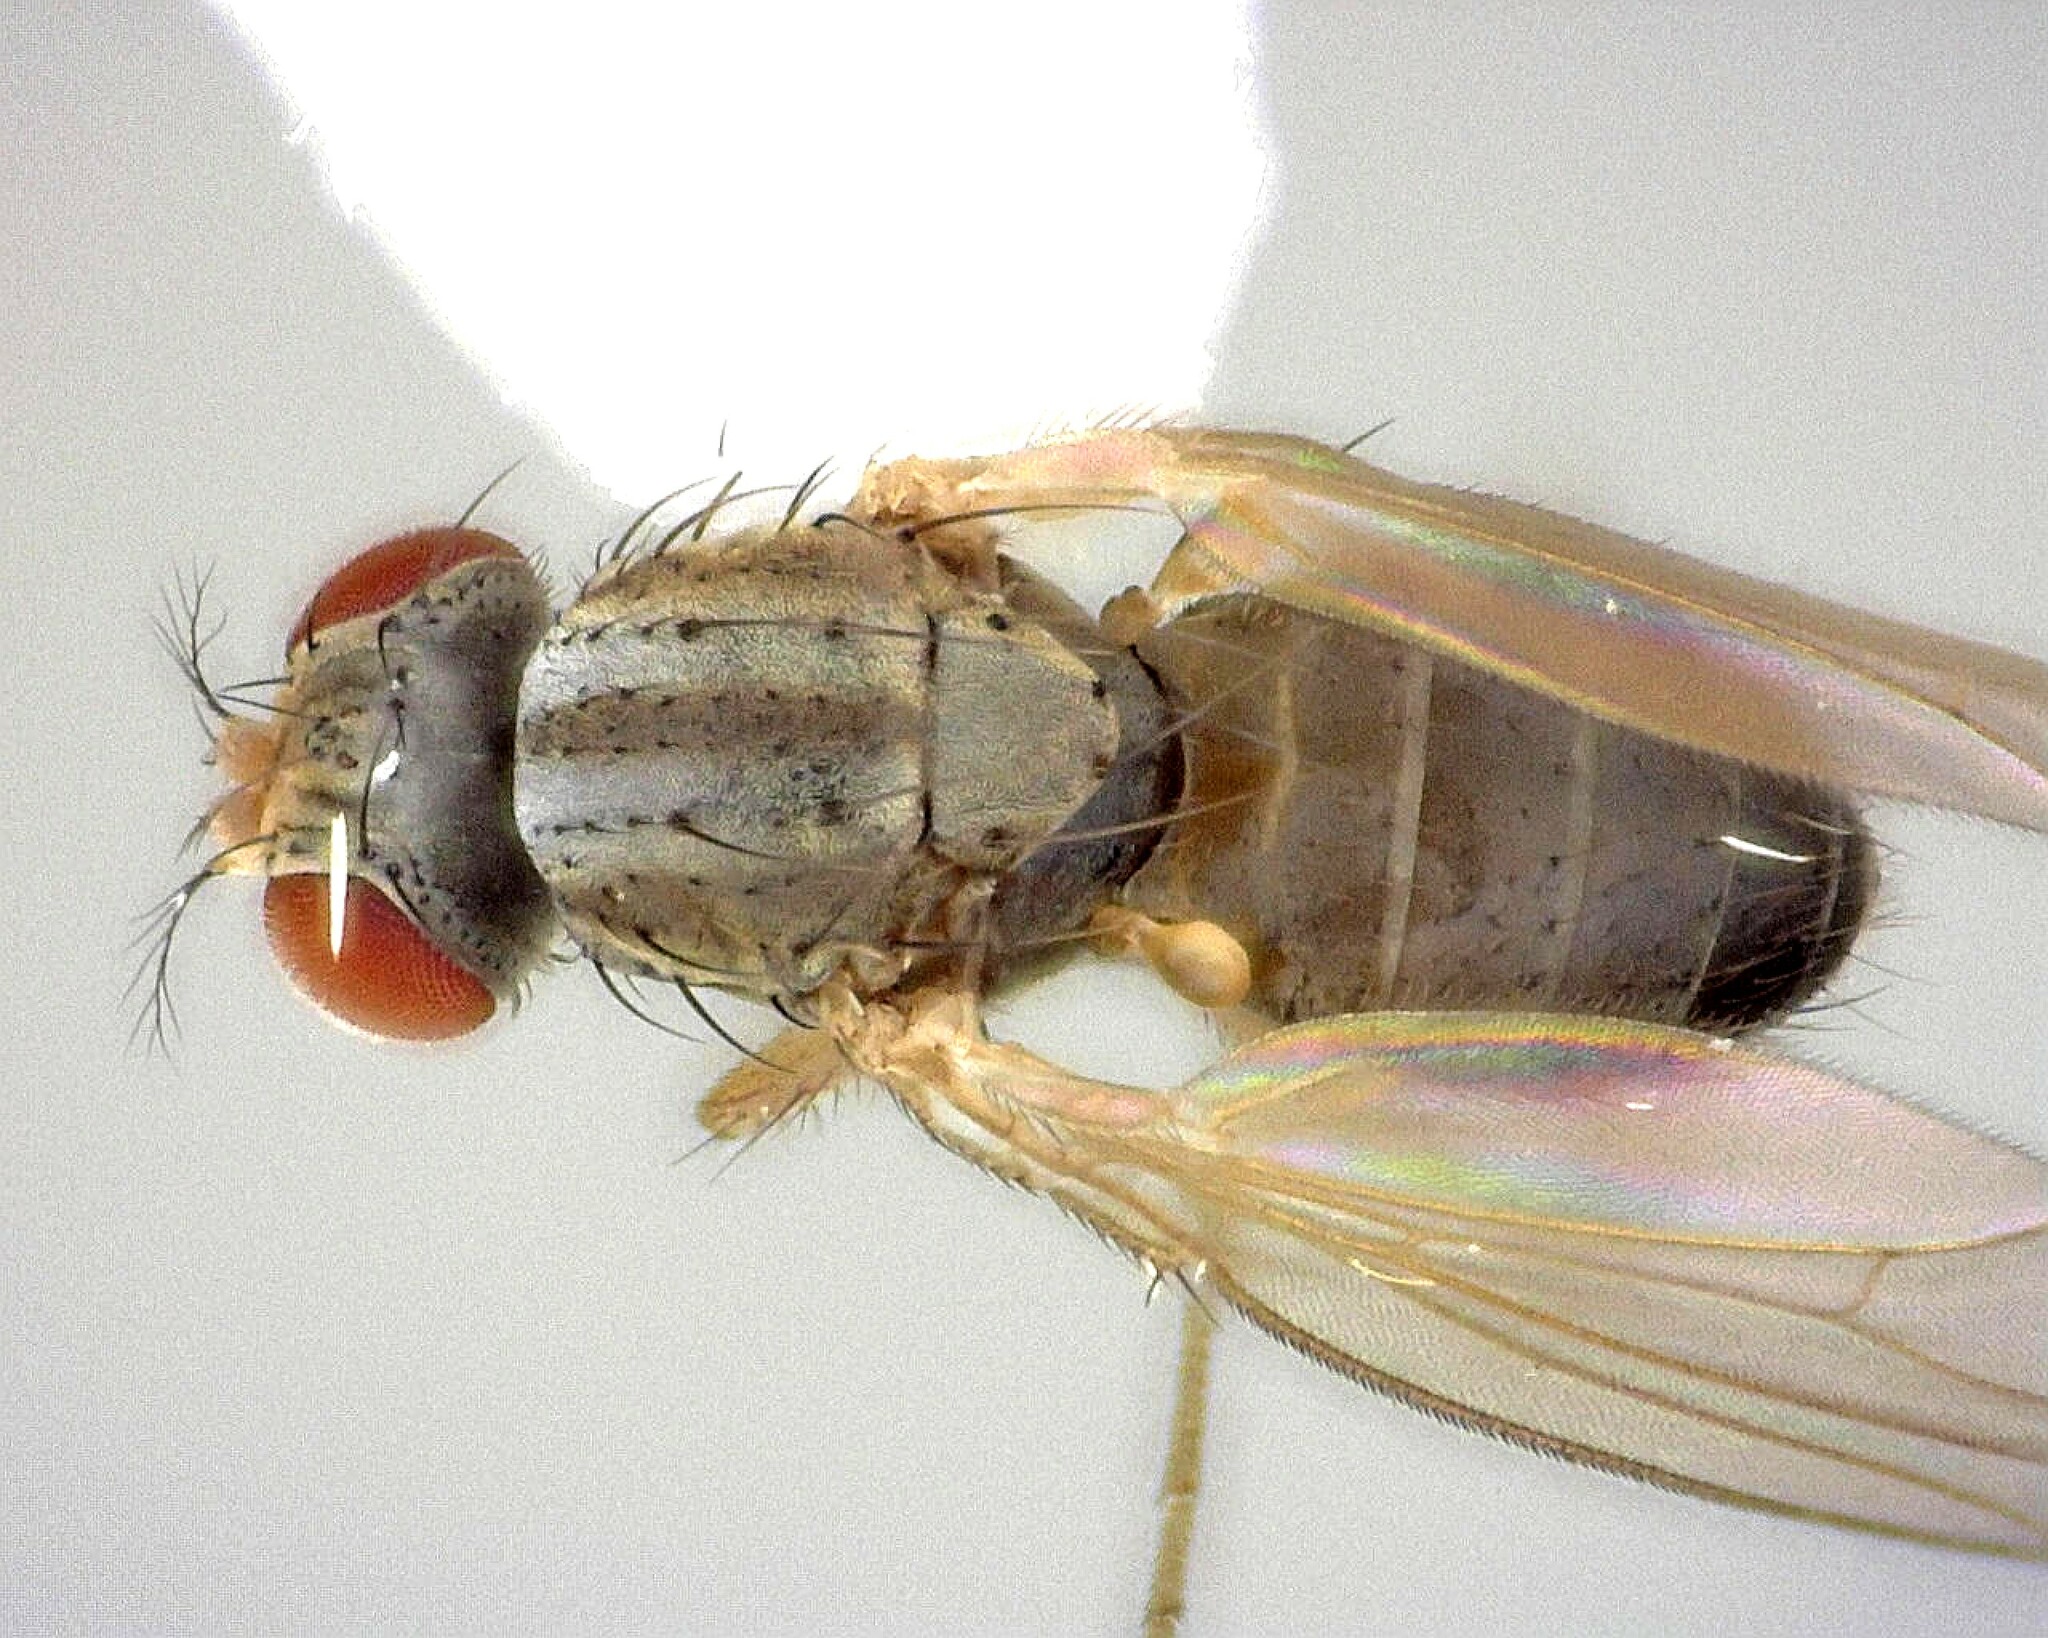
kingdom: Animalia
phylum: Arthropoda
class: Insecta
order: Diptera
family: Drosophilidae
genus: Scaptomyza
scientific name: Scaptomyza pallida
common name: Pomace fly
